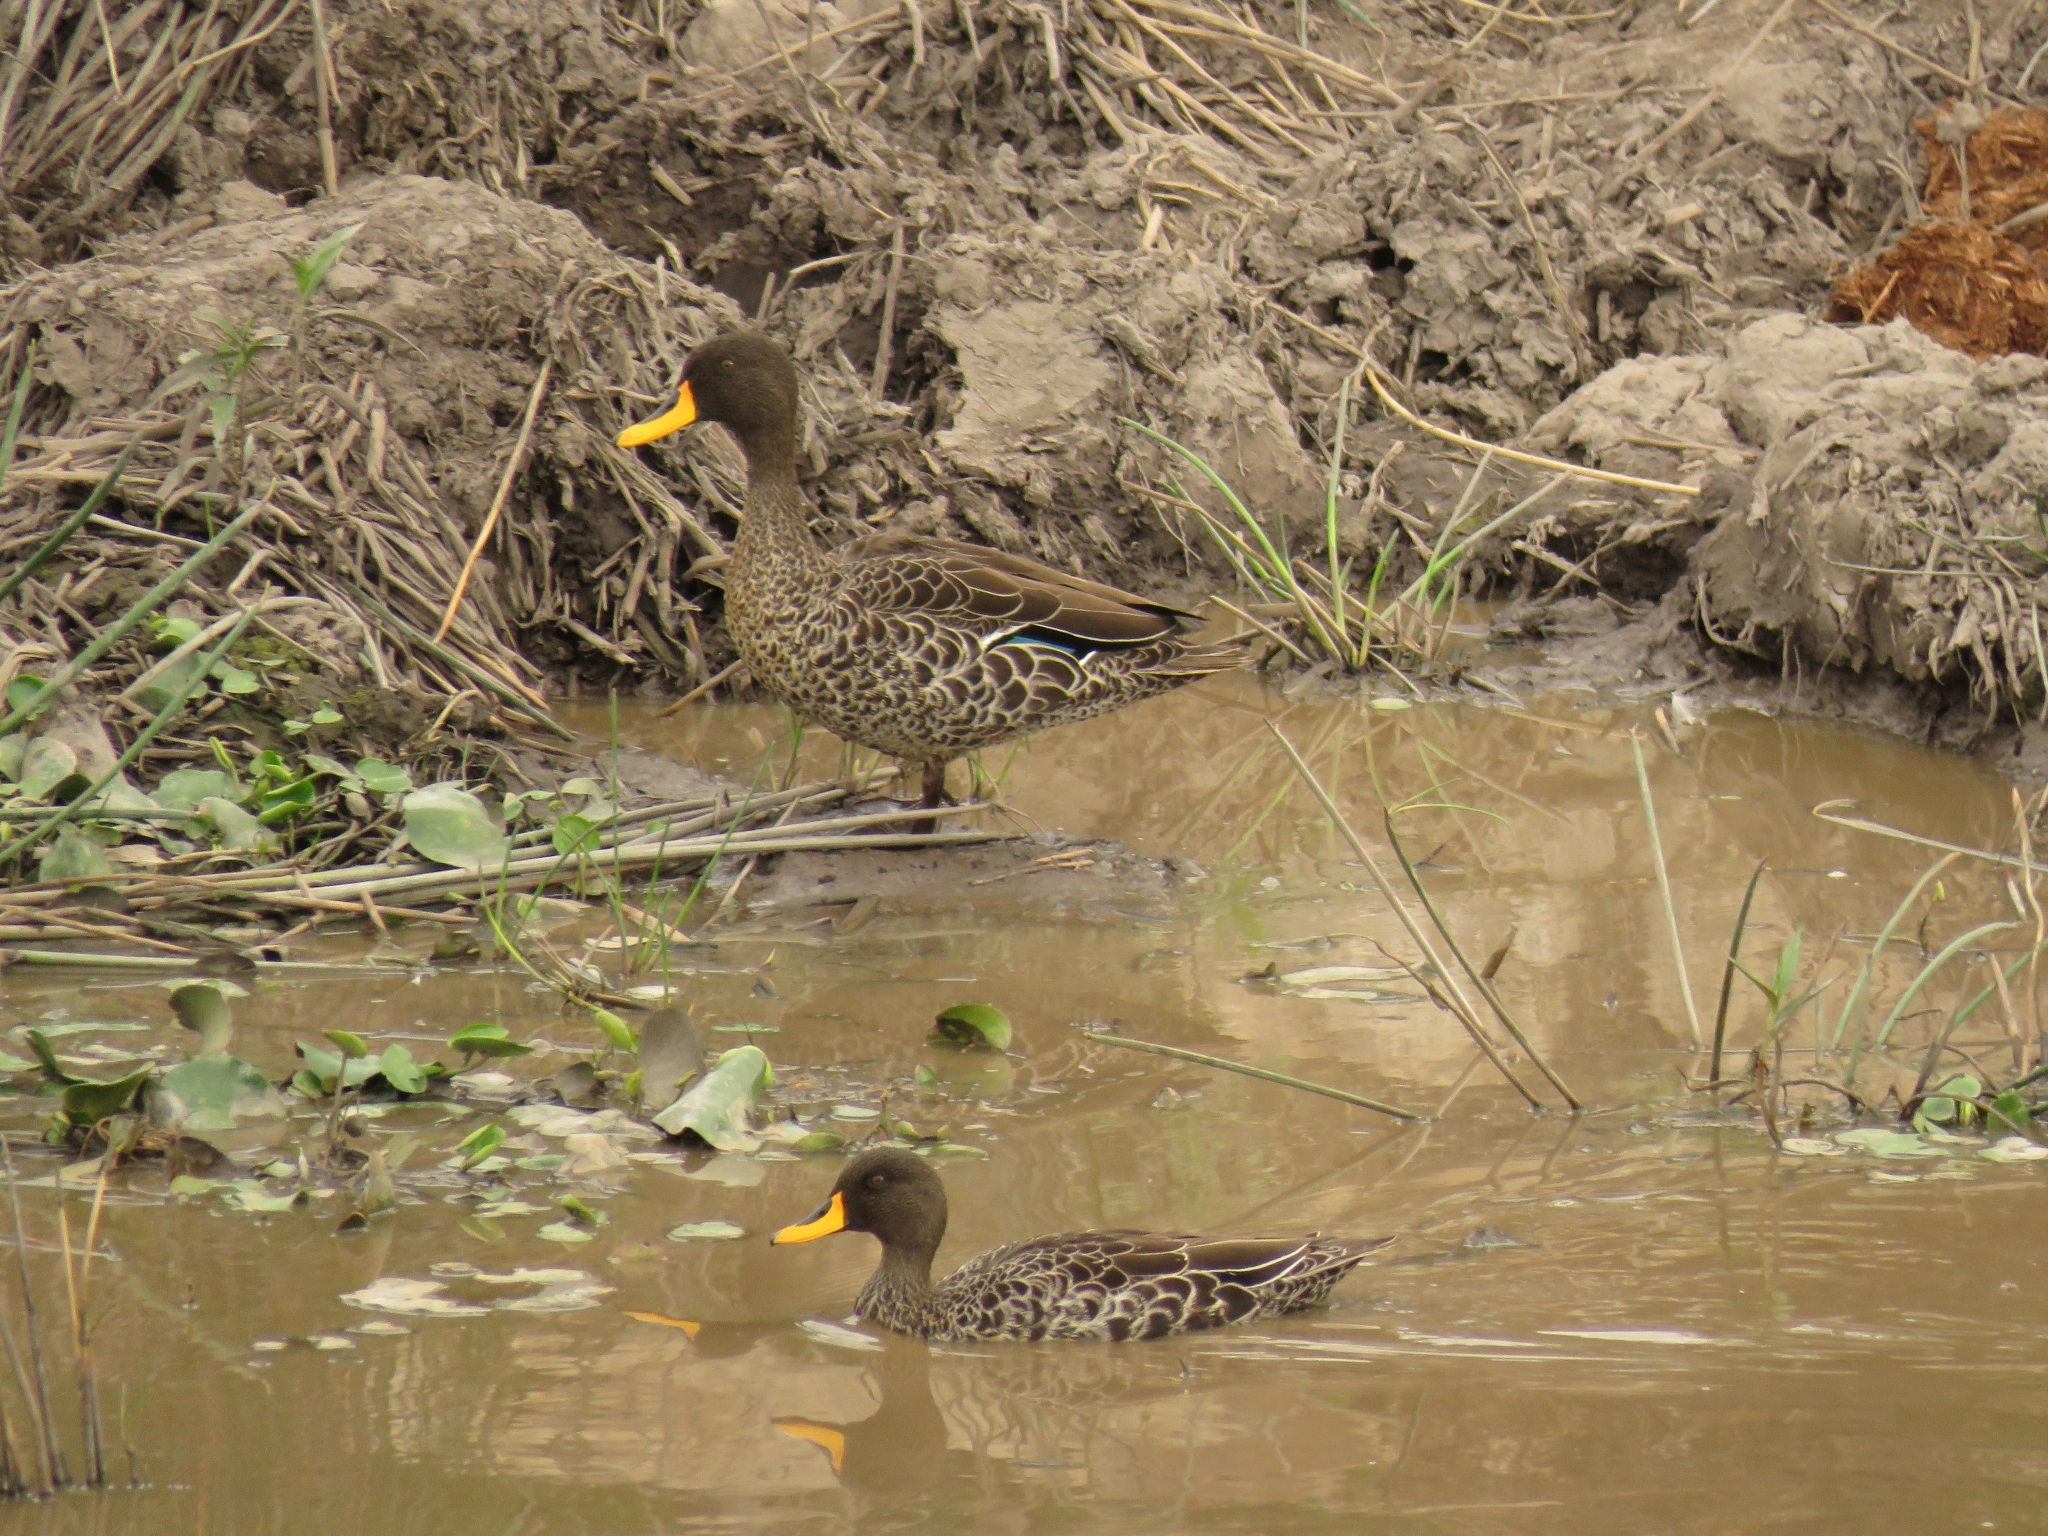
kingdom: Animalia
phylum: Chordata
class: Aves
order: Anseriformes
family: Anatidae
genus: Anas
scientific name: Anas undulata
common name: Yellow-billed duck
